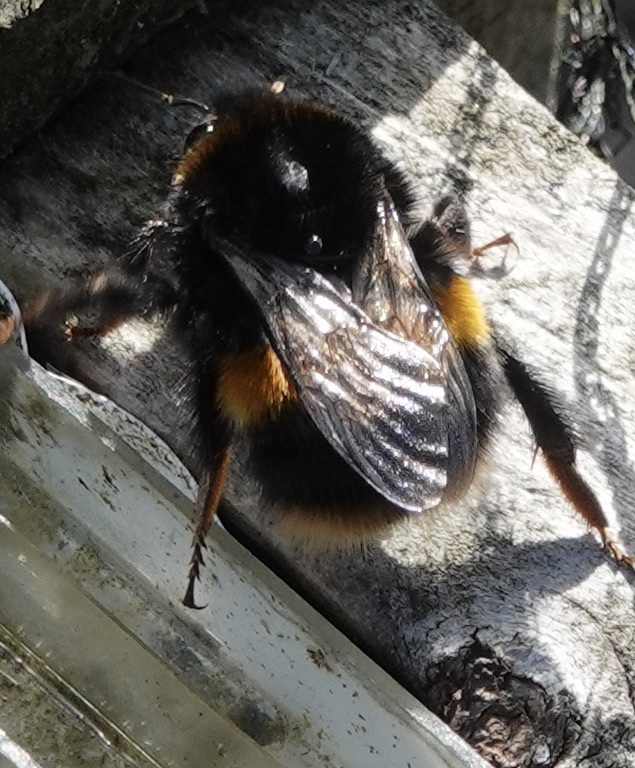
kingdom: Animalia
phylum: Arthropoda
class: Insecta
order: Hymenoptera
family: Apidae
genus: Bombus
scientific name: Bombus terrestris
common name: Buff-tailed bumblebee
